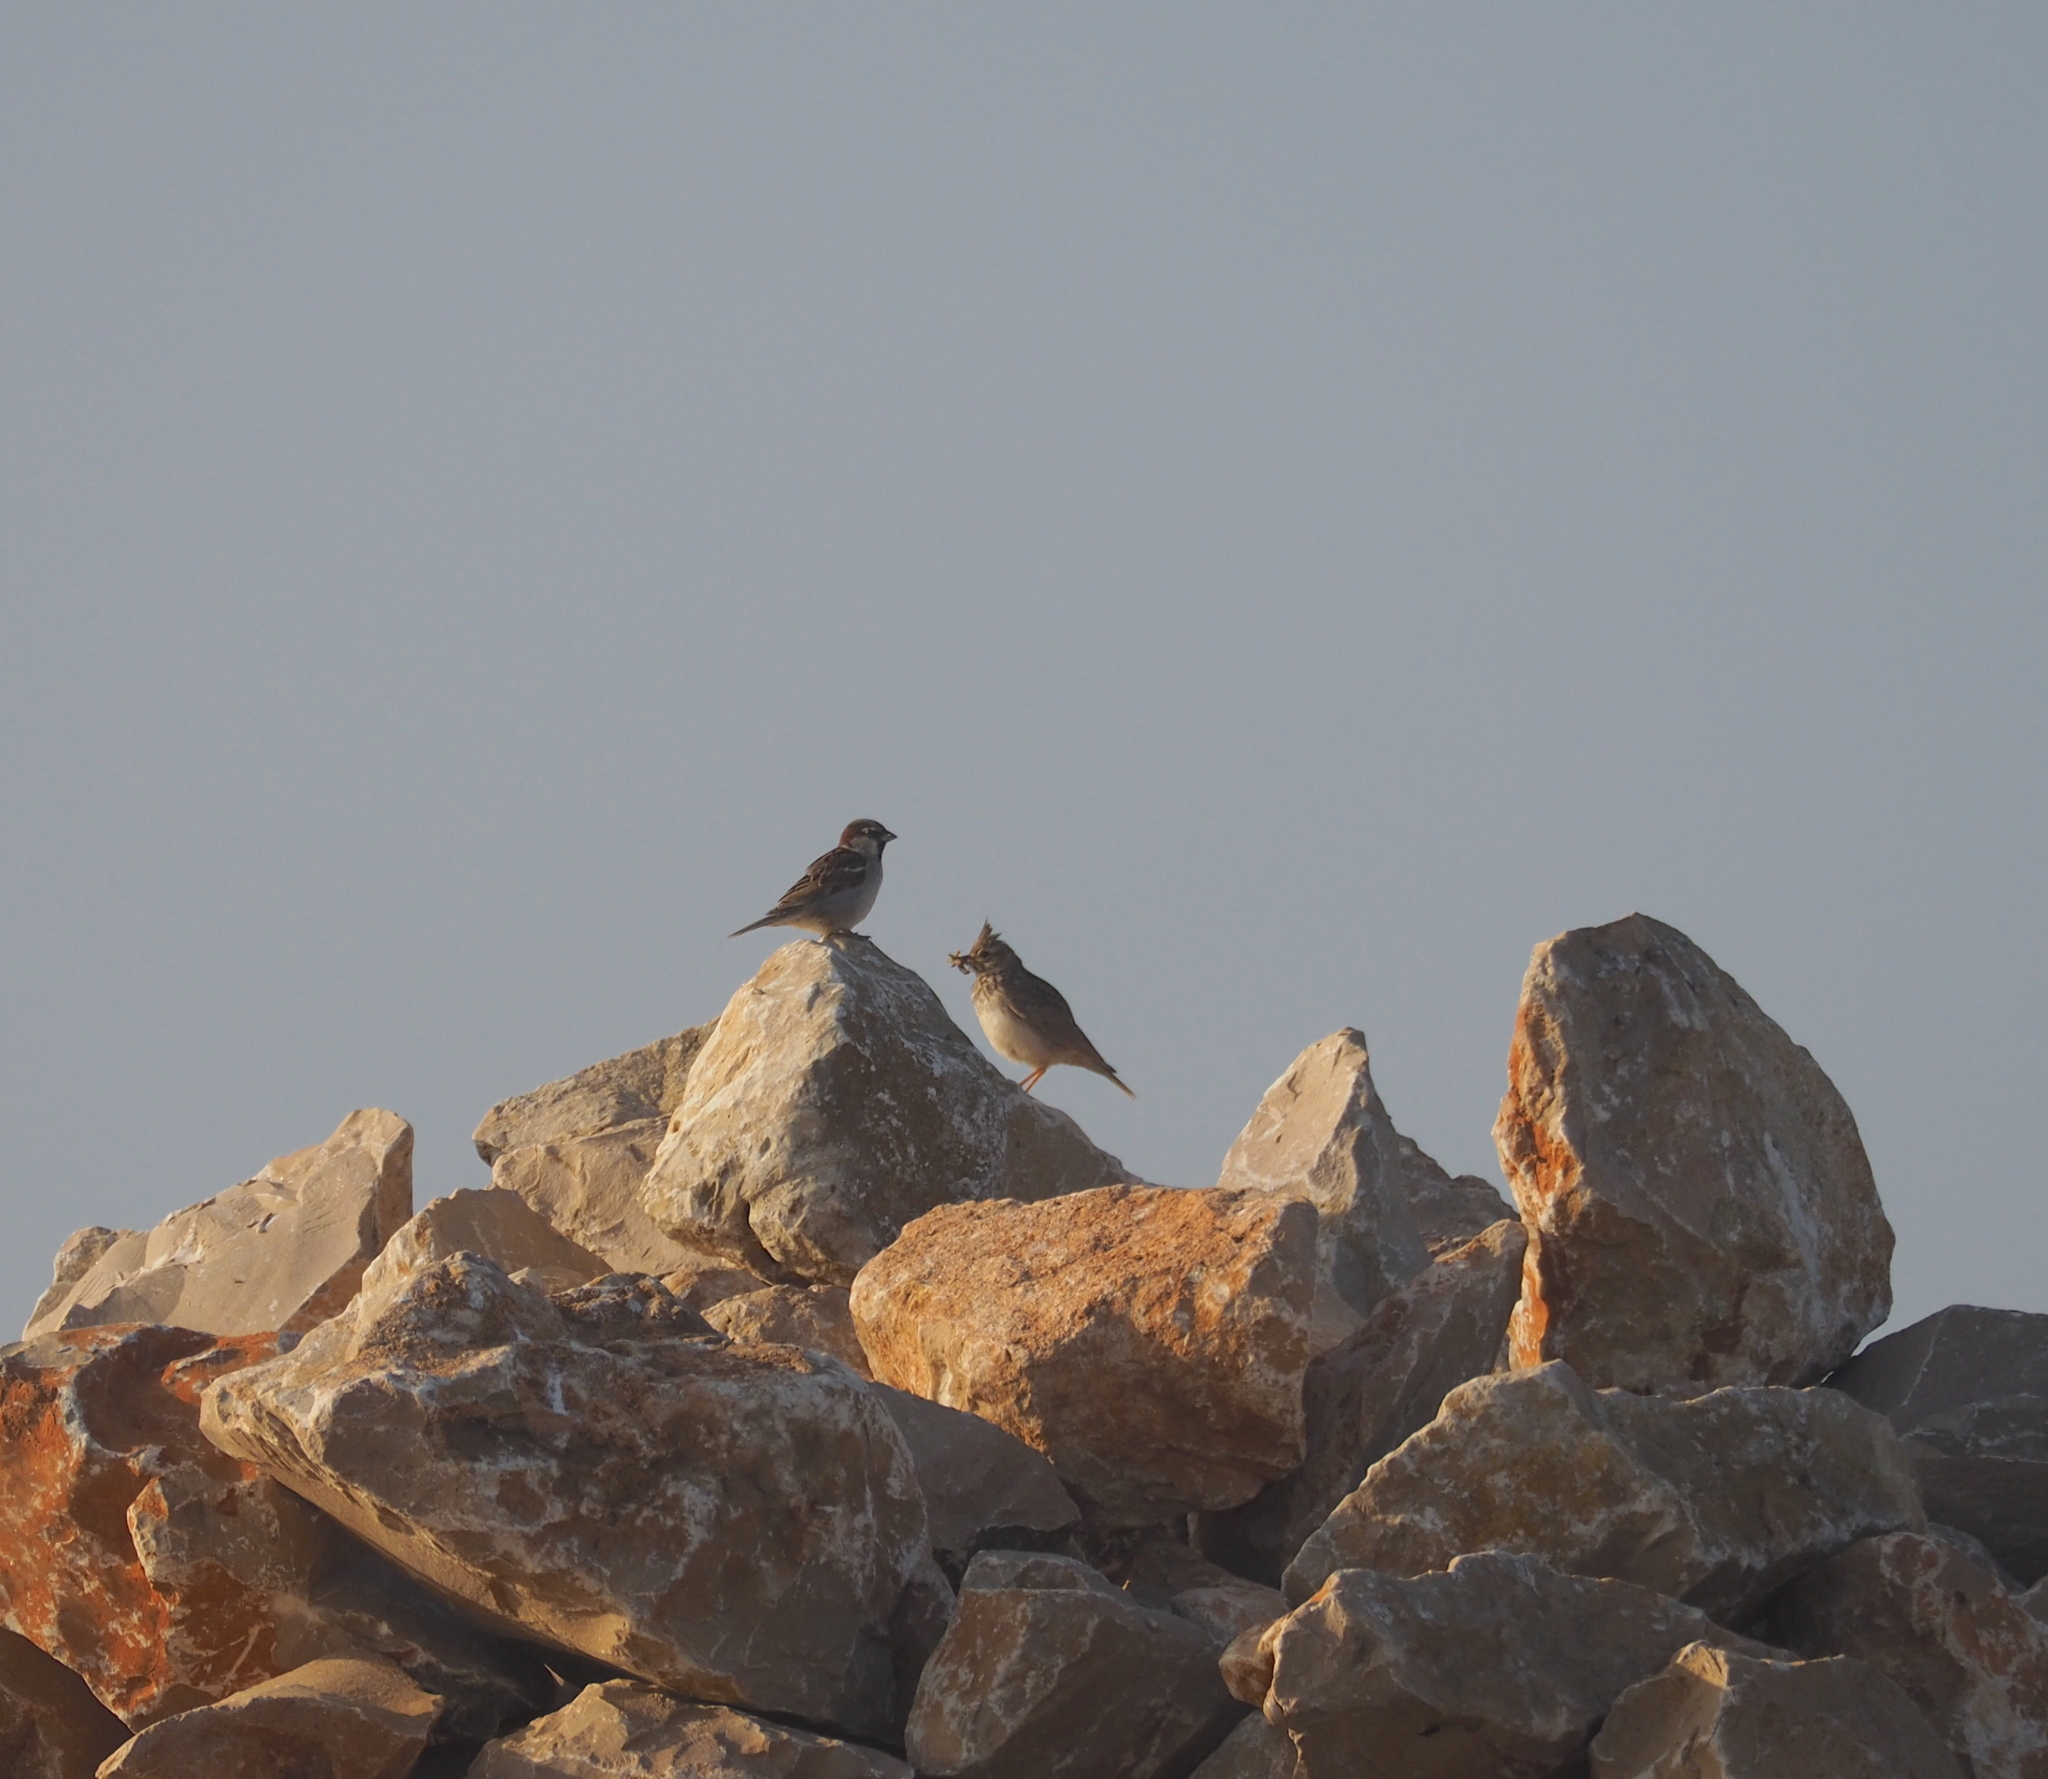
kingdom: Animalia
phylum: Chordata
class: Aves
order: Passeriformes
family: Passeridae
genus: Passer
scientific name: Passer domesticus
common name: House sparrow
